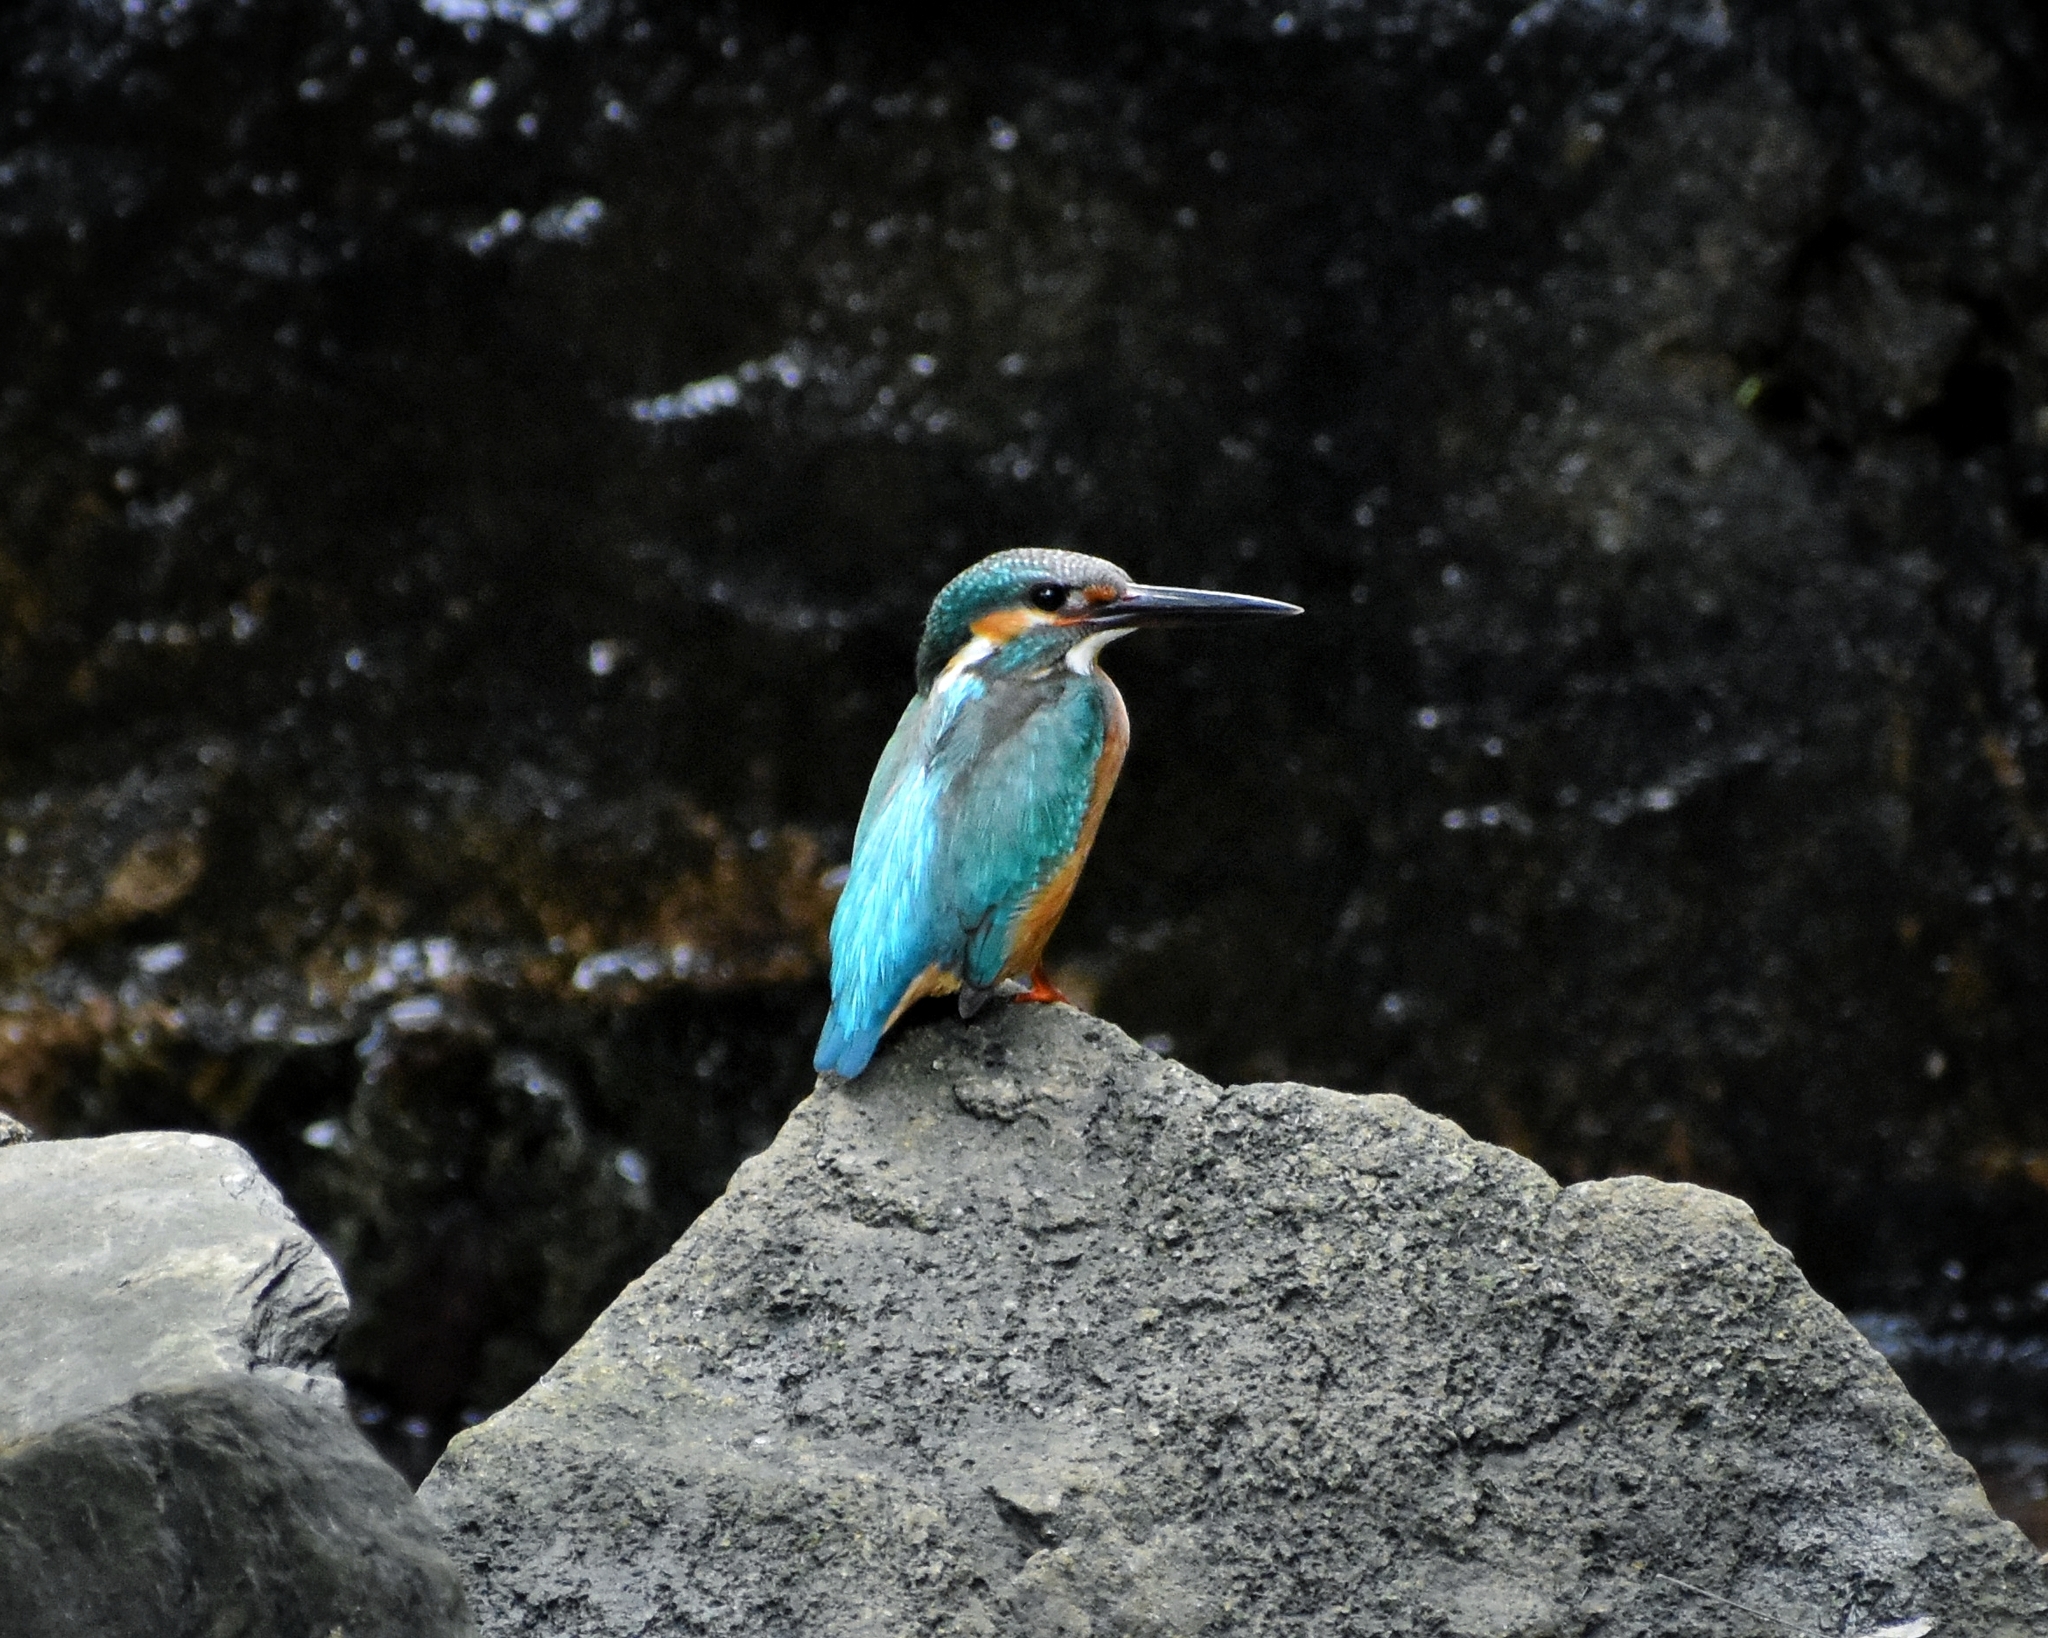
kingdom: Animalia
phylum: Chordata
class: Aves
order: Coraciiformes
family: Alcedinidae
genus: Alcedo
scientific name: Alcedo atthis
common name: Common kingfisher
